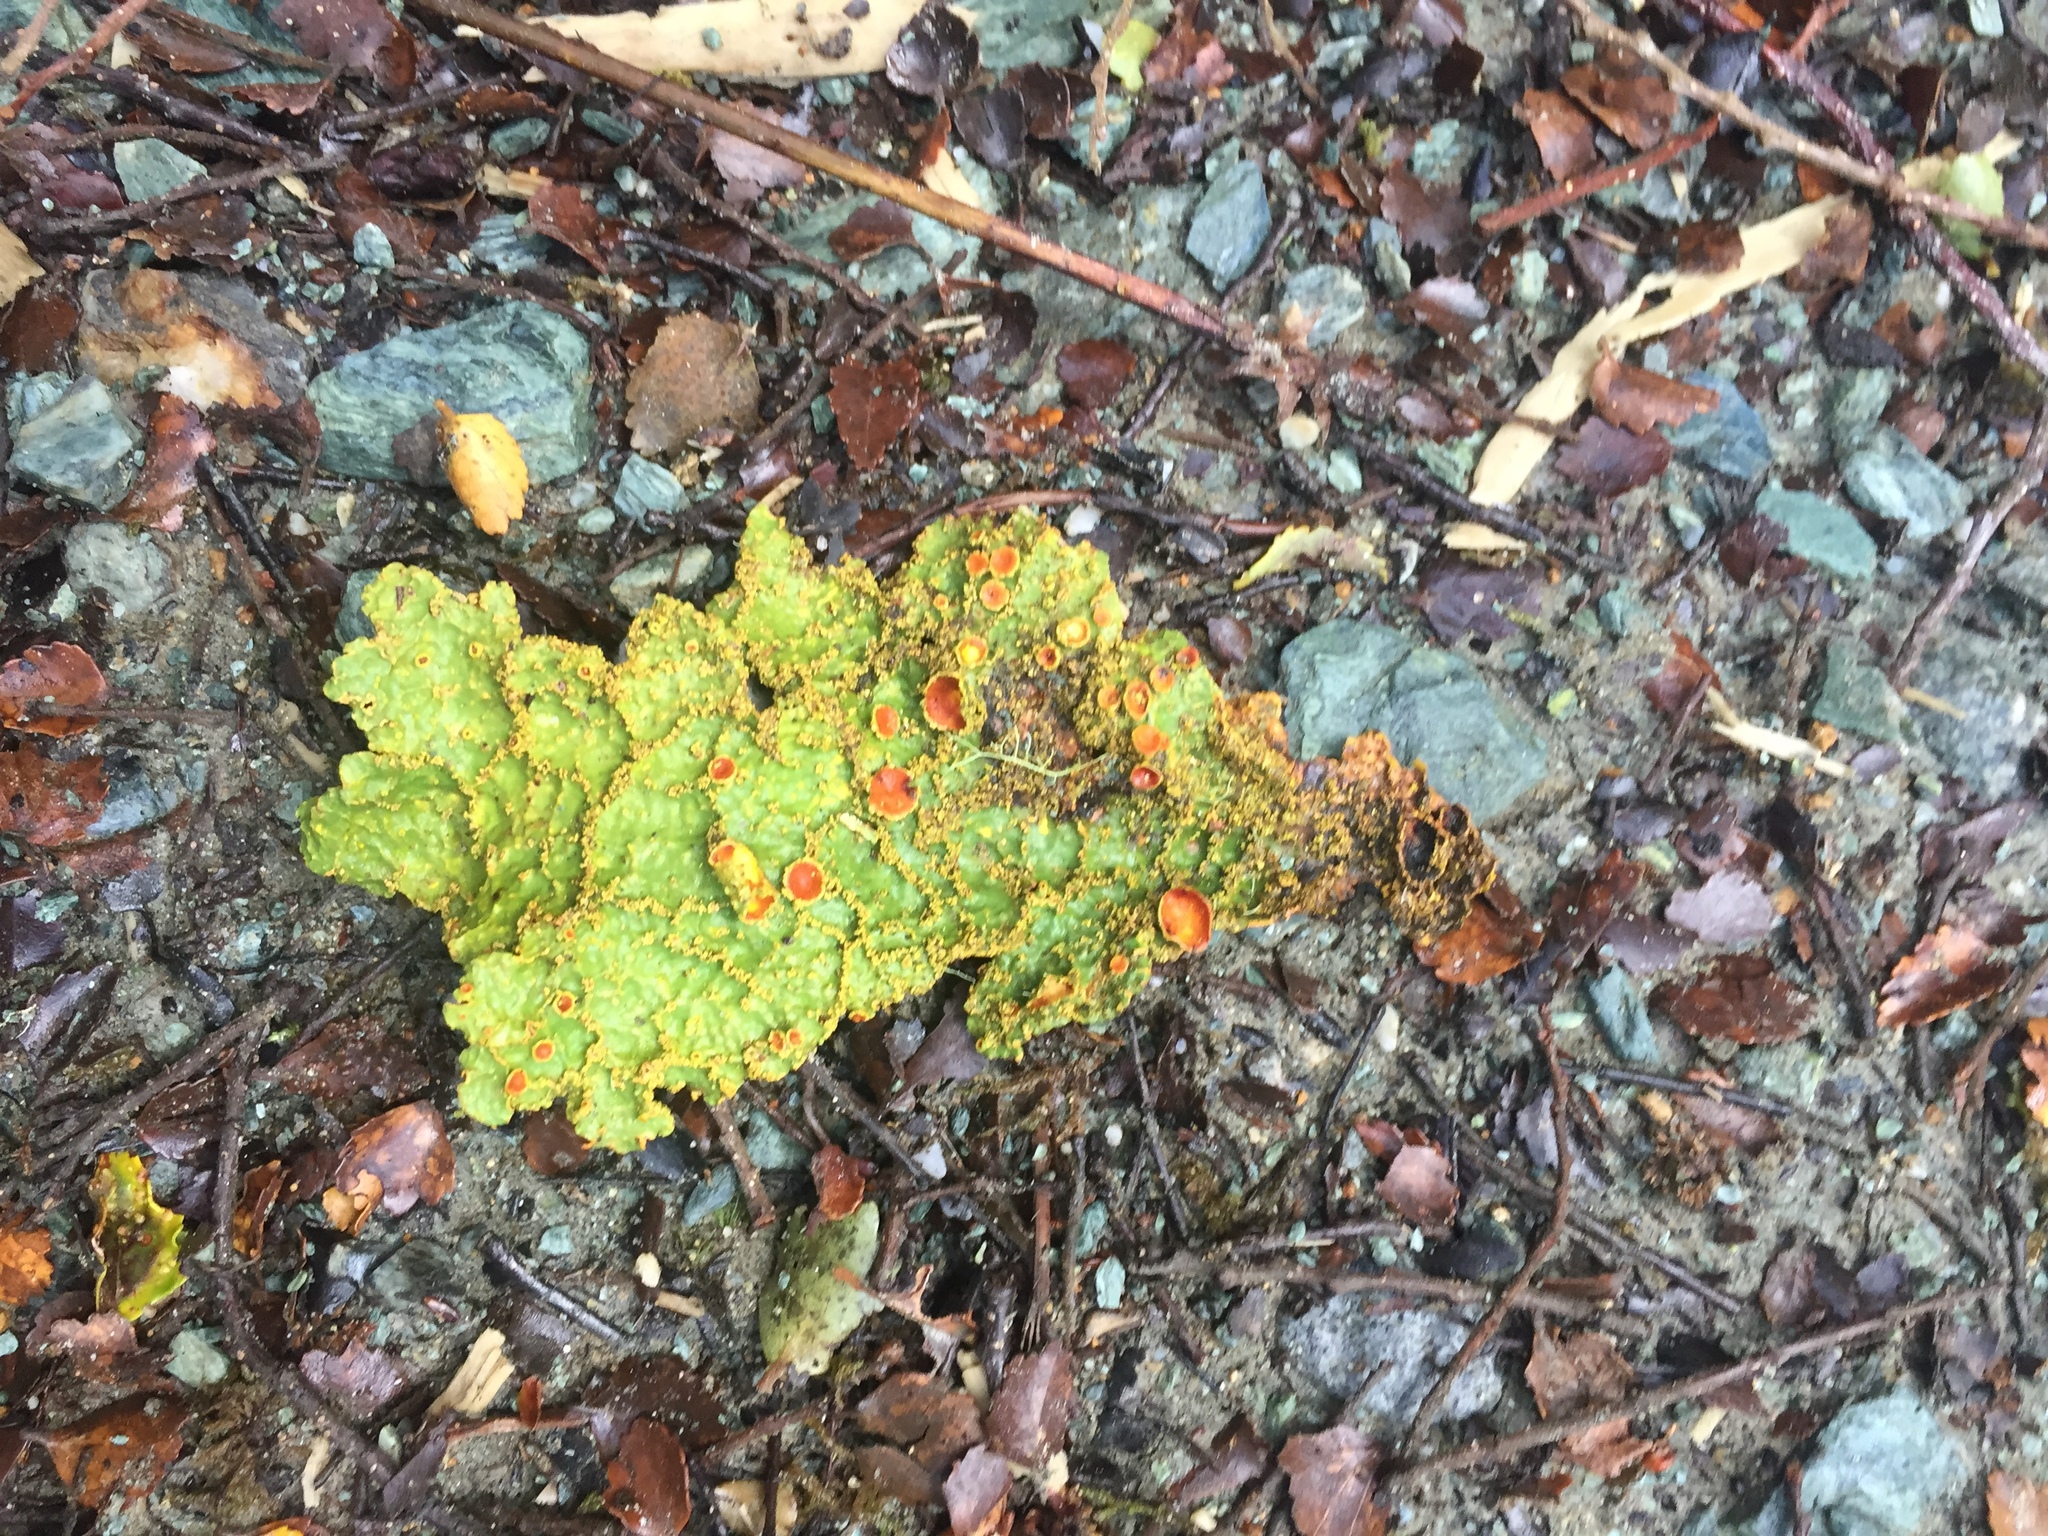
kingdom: Fungi
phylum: Ascomycota
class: Lecanoromycetes
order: Peltigerales
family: Lobariaceae
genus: Yarrumia
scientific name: Yarrumia colensoi
